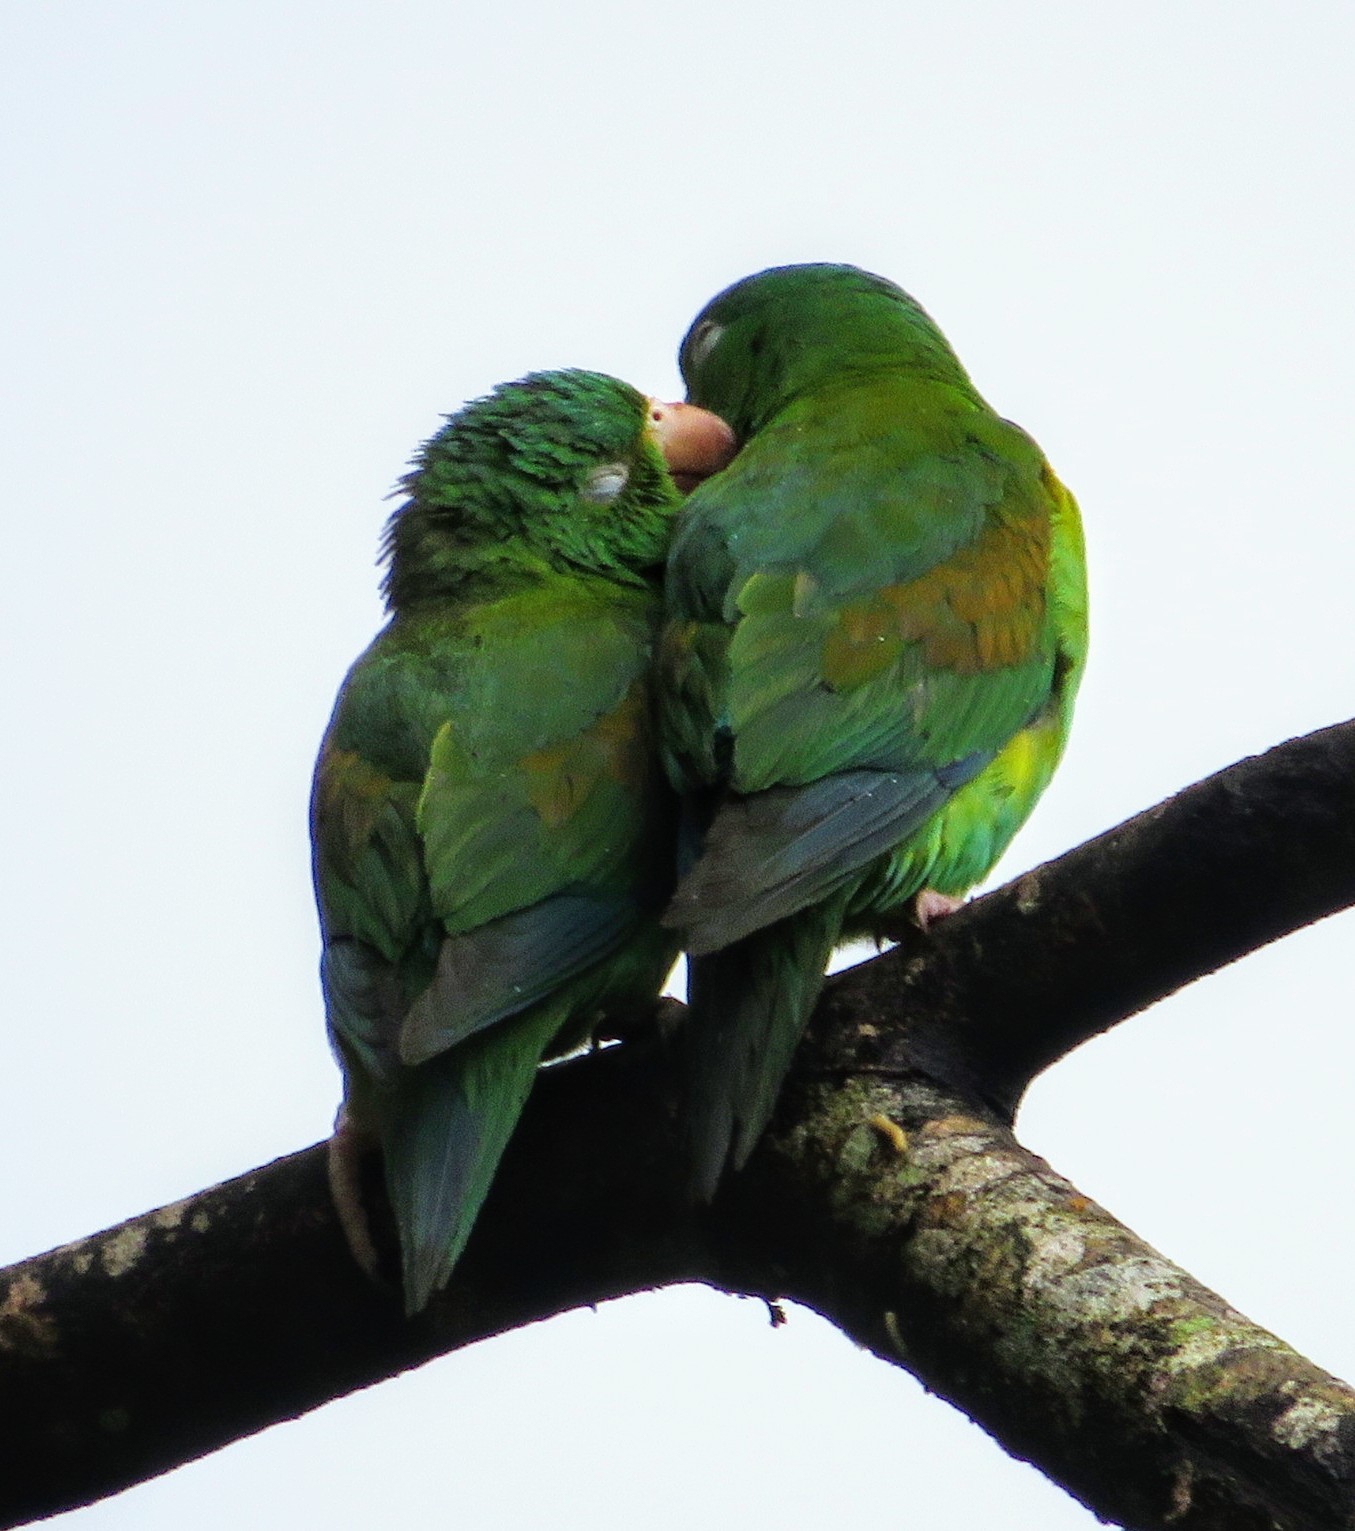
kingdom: Animalia
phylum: Chordata
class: Aves
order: Psittaciformes
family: Psittacidae
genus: Brotogeris
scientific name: Brotogeris jugularis
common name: Orange-chinned parakeet
